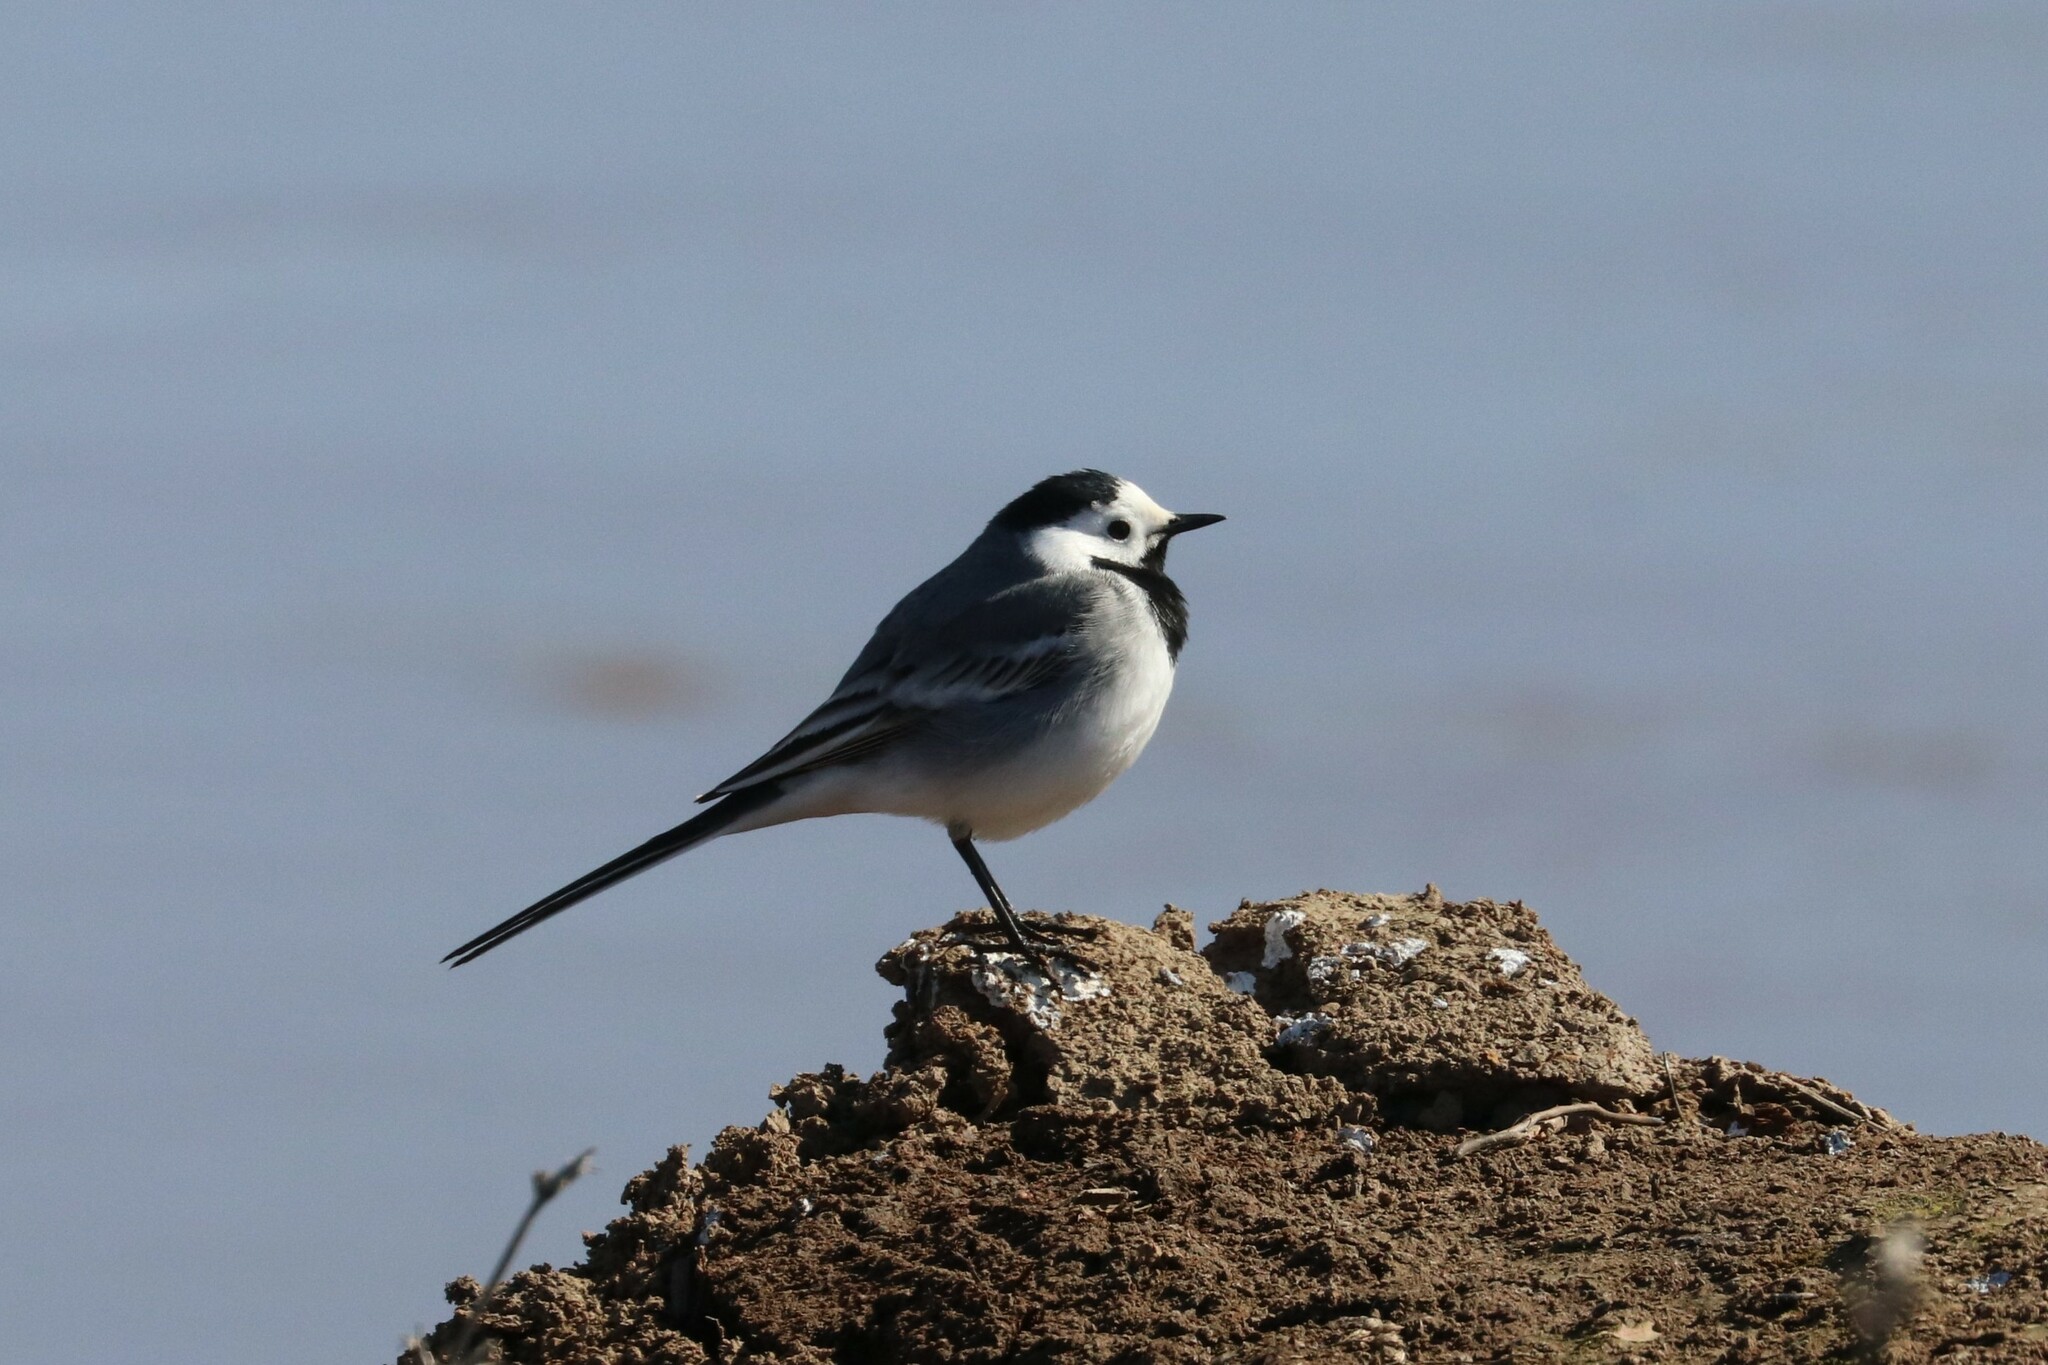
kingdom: Animalia
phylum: Chordata
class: Aves
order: Passeriformes
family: Motacillidae
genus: Motacilla
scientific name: Motacilla alba
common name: White wagtail
